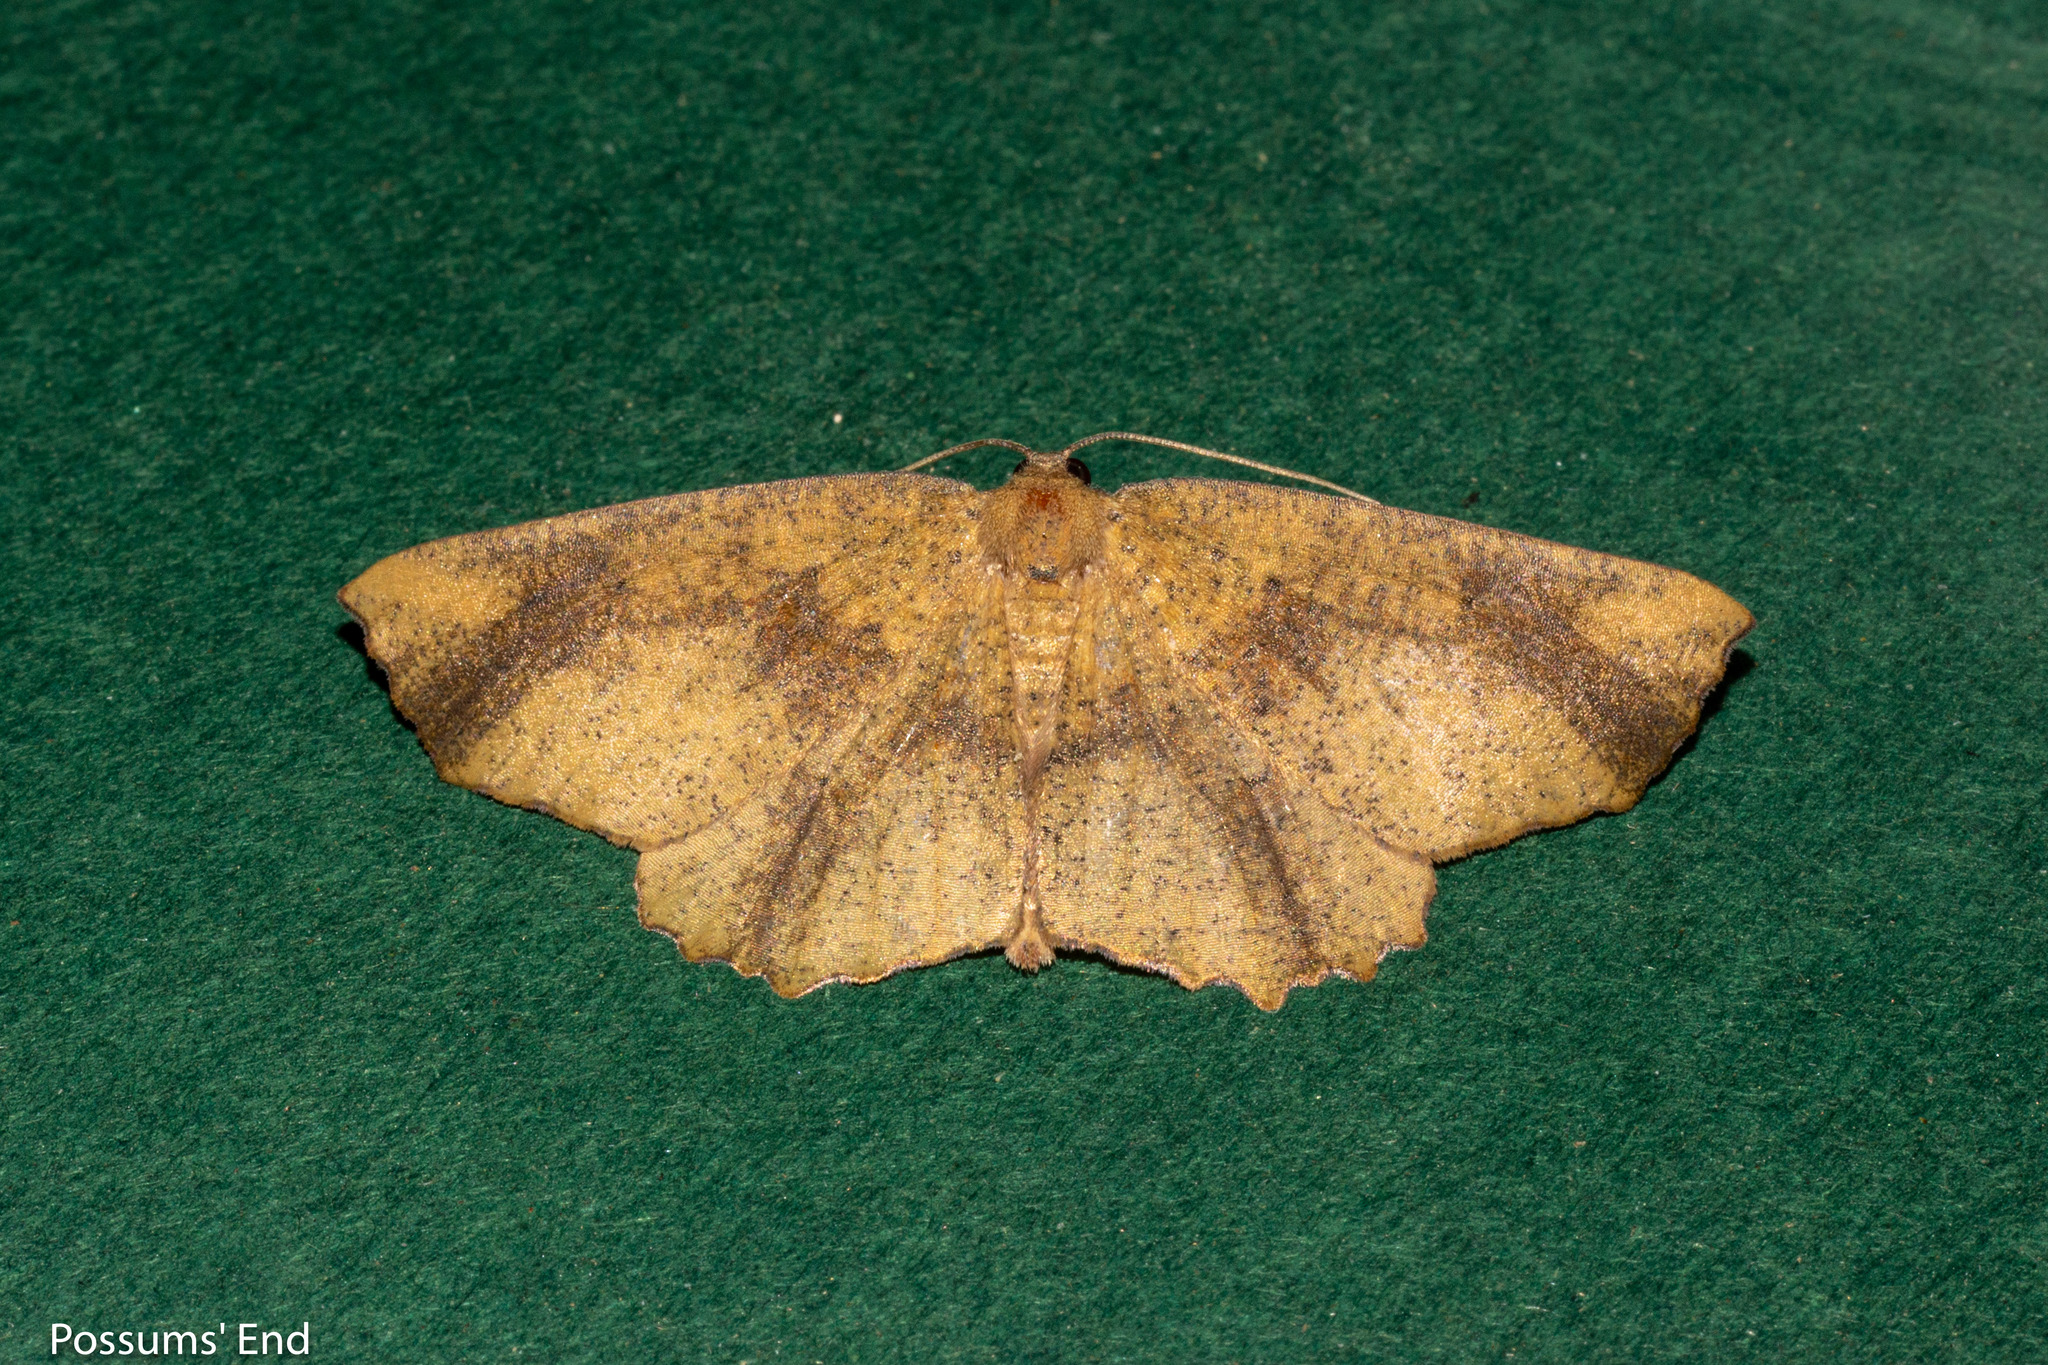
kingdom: Animalia
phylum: Arthropoda
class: Insecta
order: Lepidoptera
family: Geometridae
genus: Xyridacma
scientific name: Xyridacma ustaria
